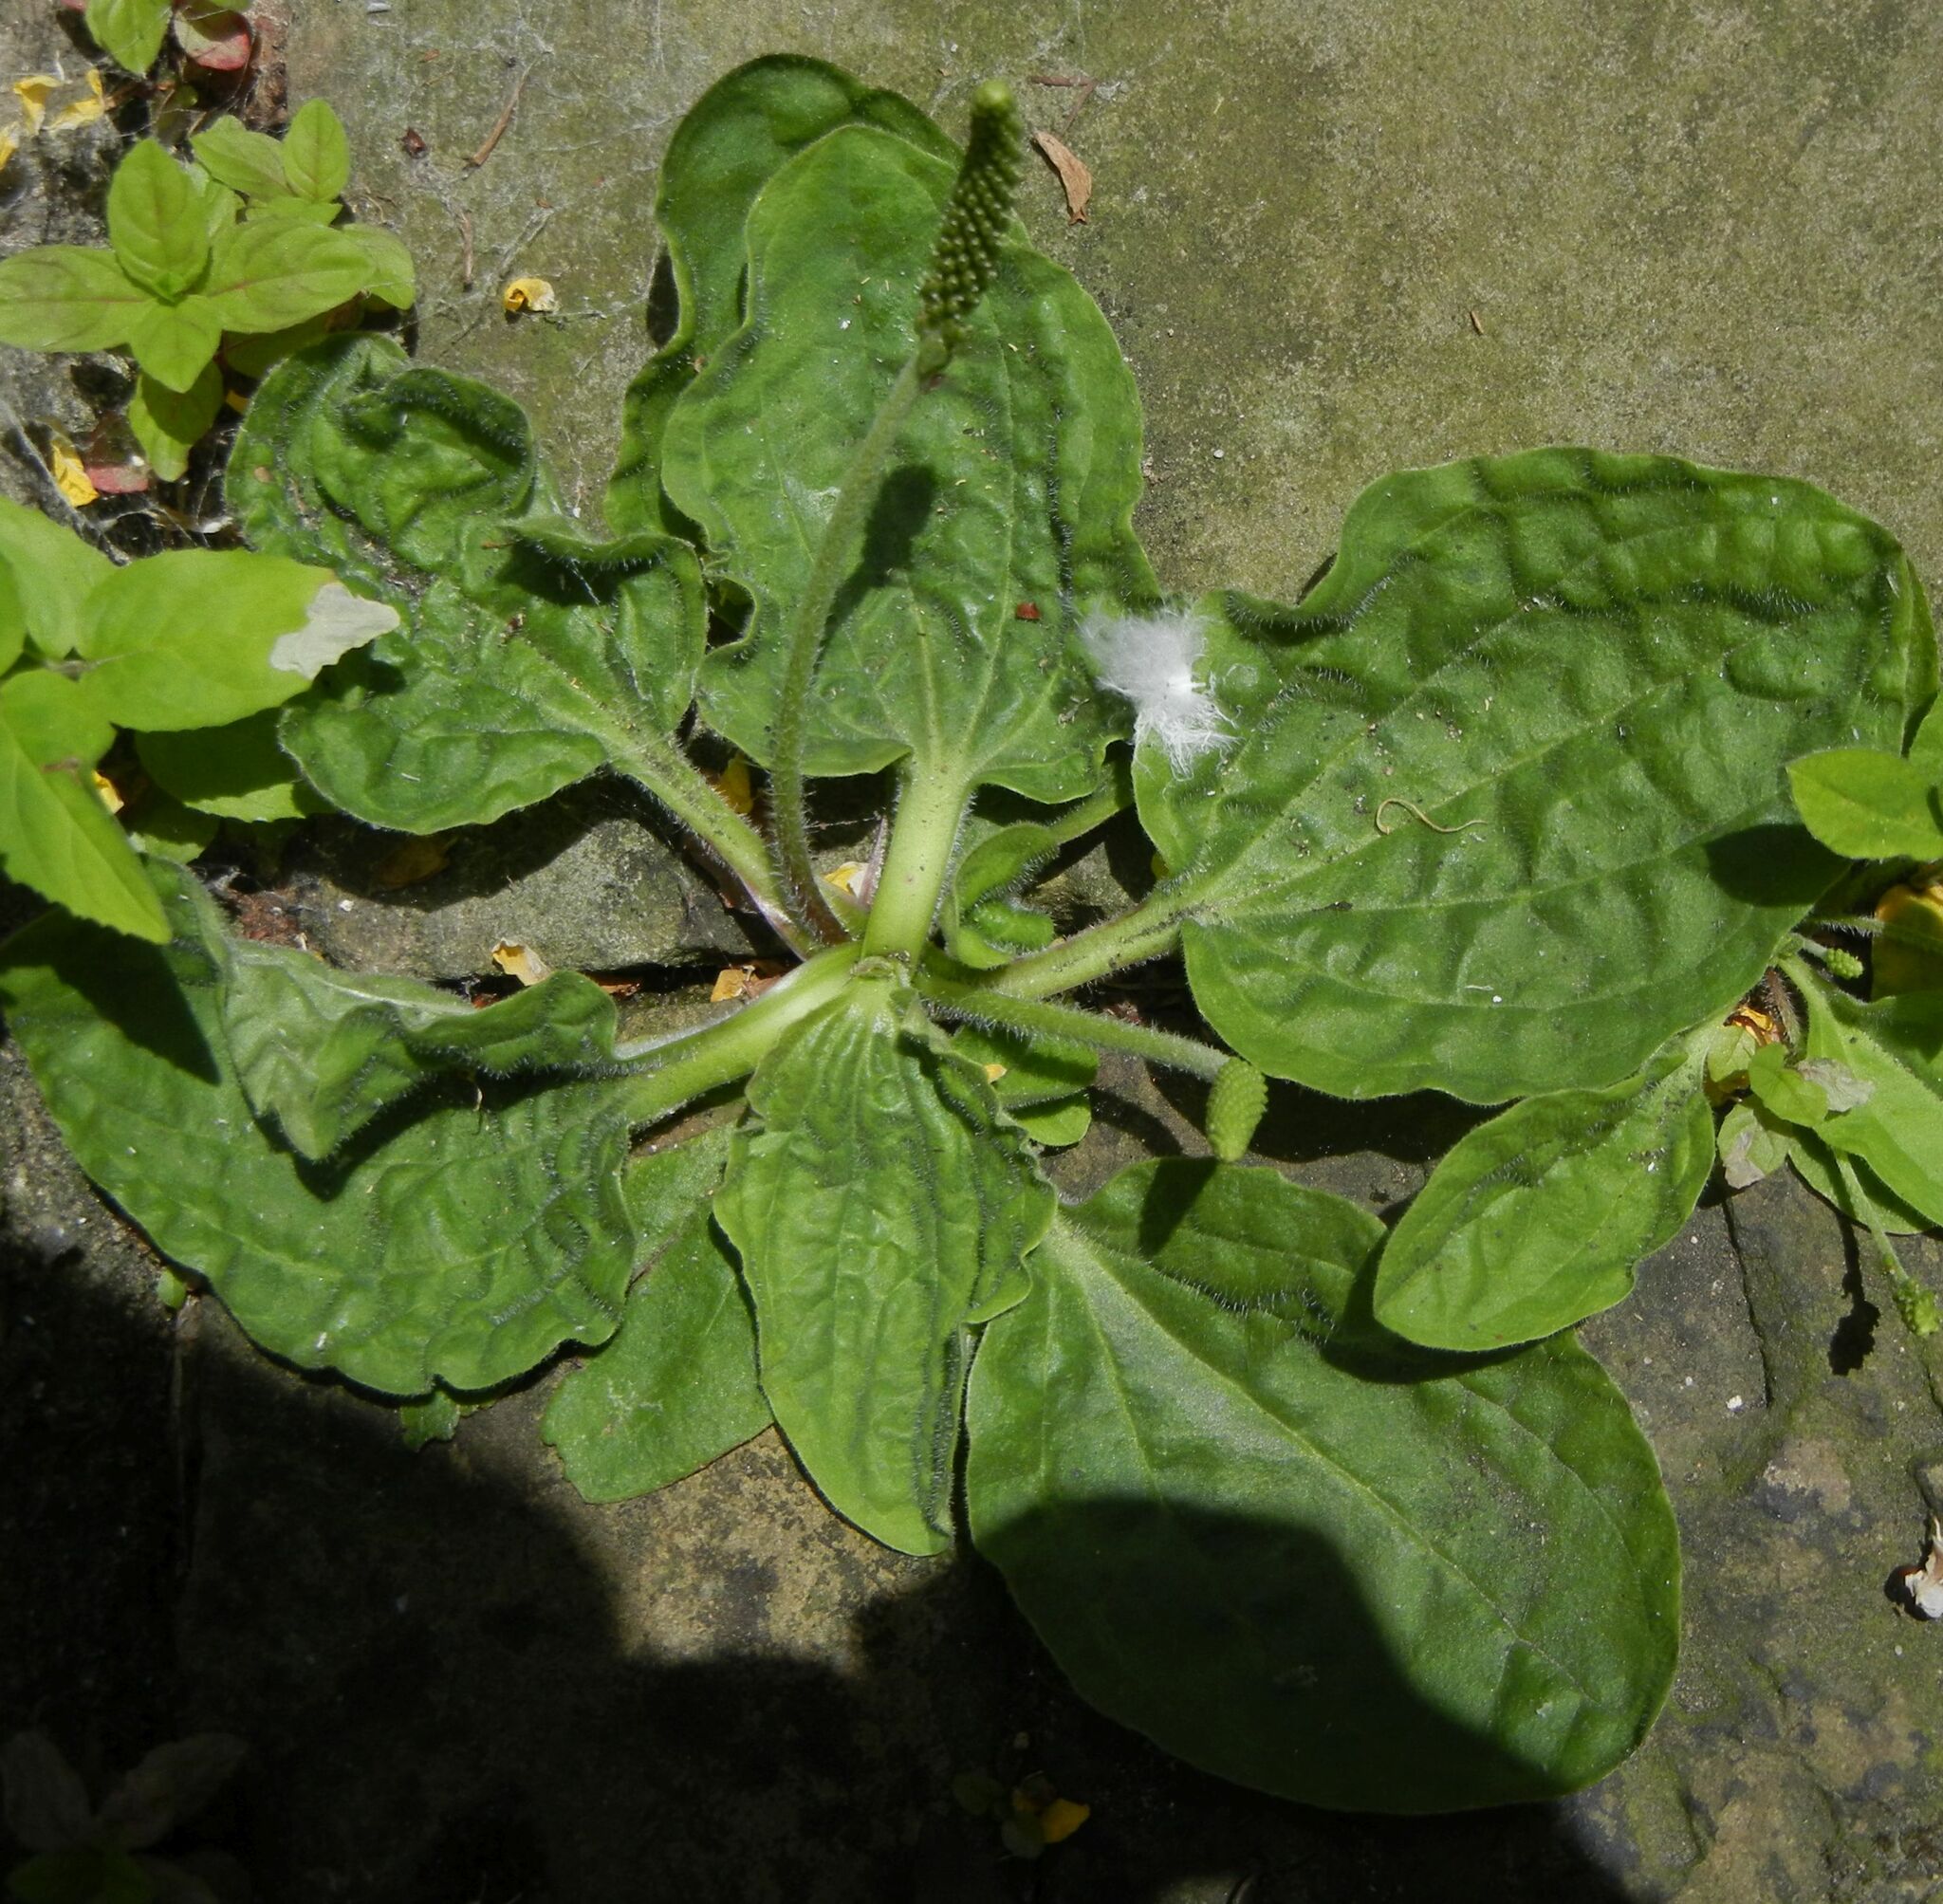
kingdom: Plantae
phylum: Tracheophyta
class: Magnoliopsida
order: Lamiales
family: Plantaginaceae
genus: Plantago
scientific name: Plantago major
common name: Common plantain
